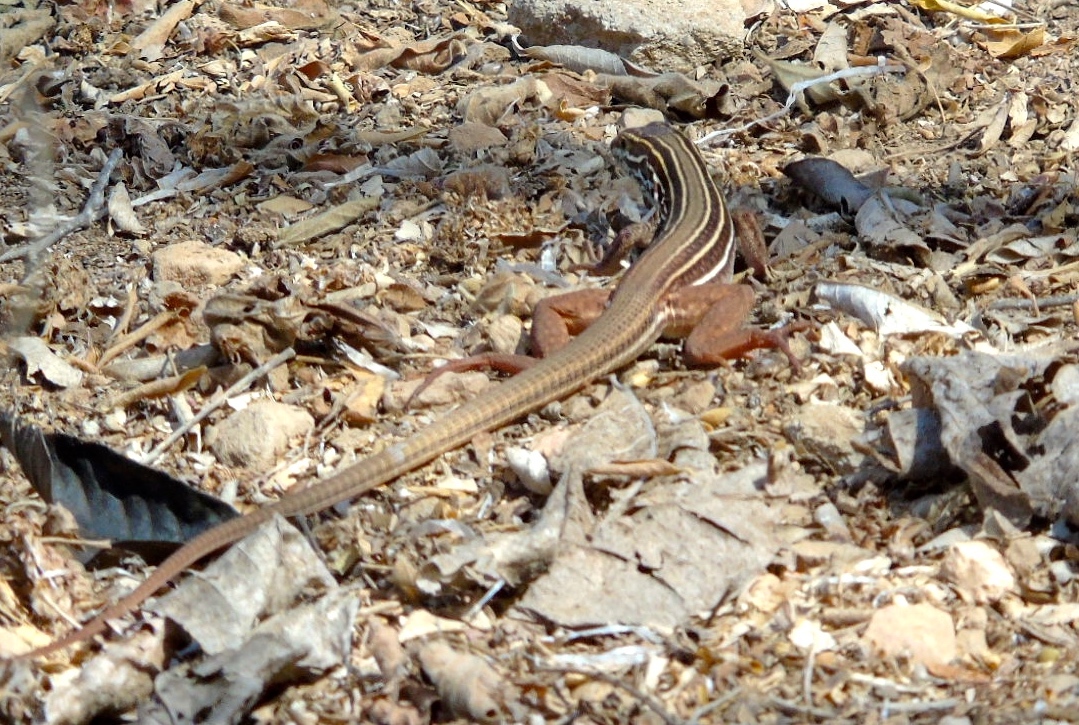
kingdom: Animalia
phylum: Chordata
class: Squamata
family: Teiidae
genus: Aspidoscelis
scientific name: Aspidoscelis costatus
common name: Western mexico whiptail
